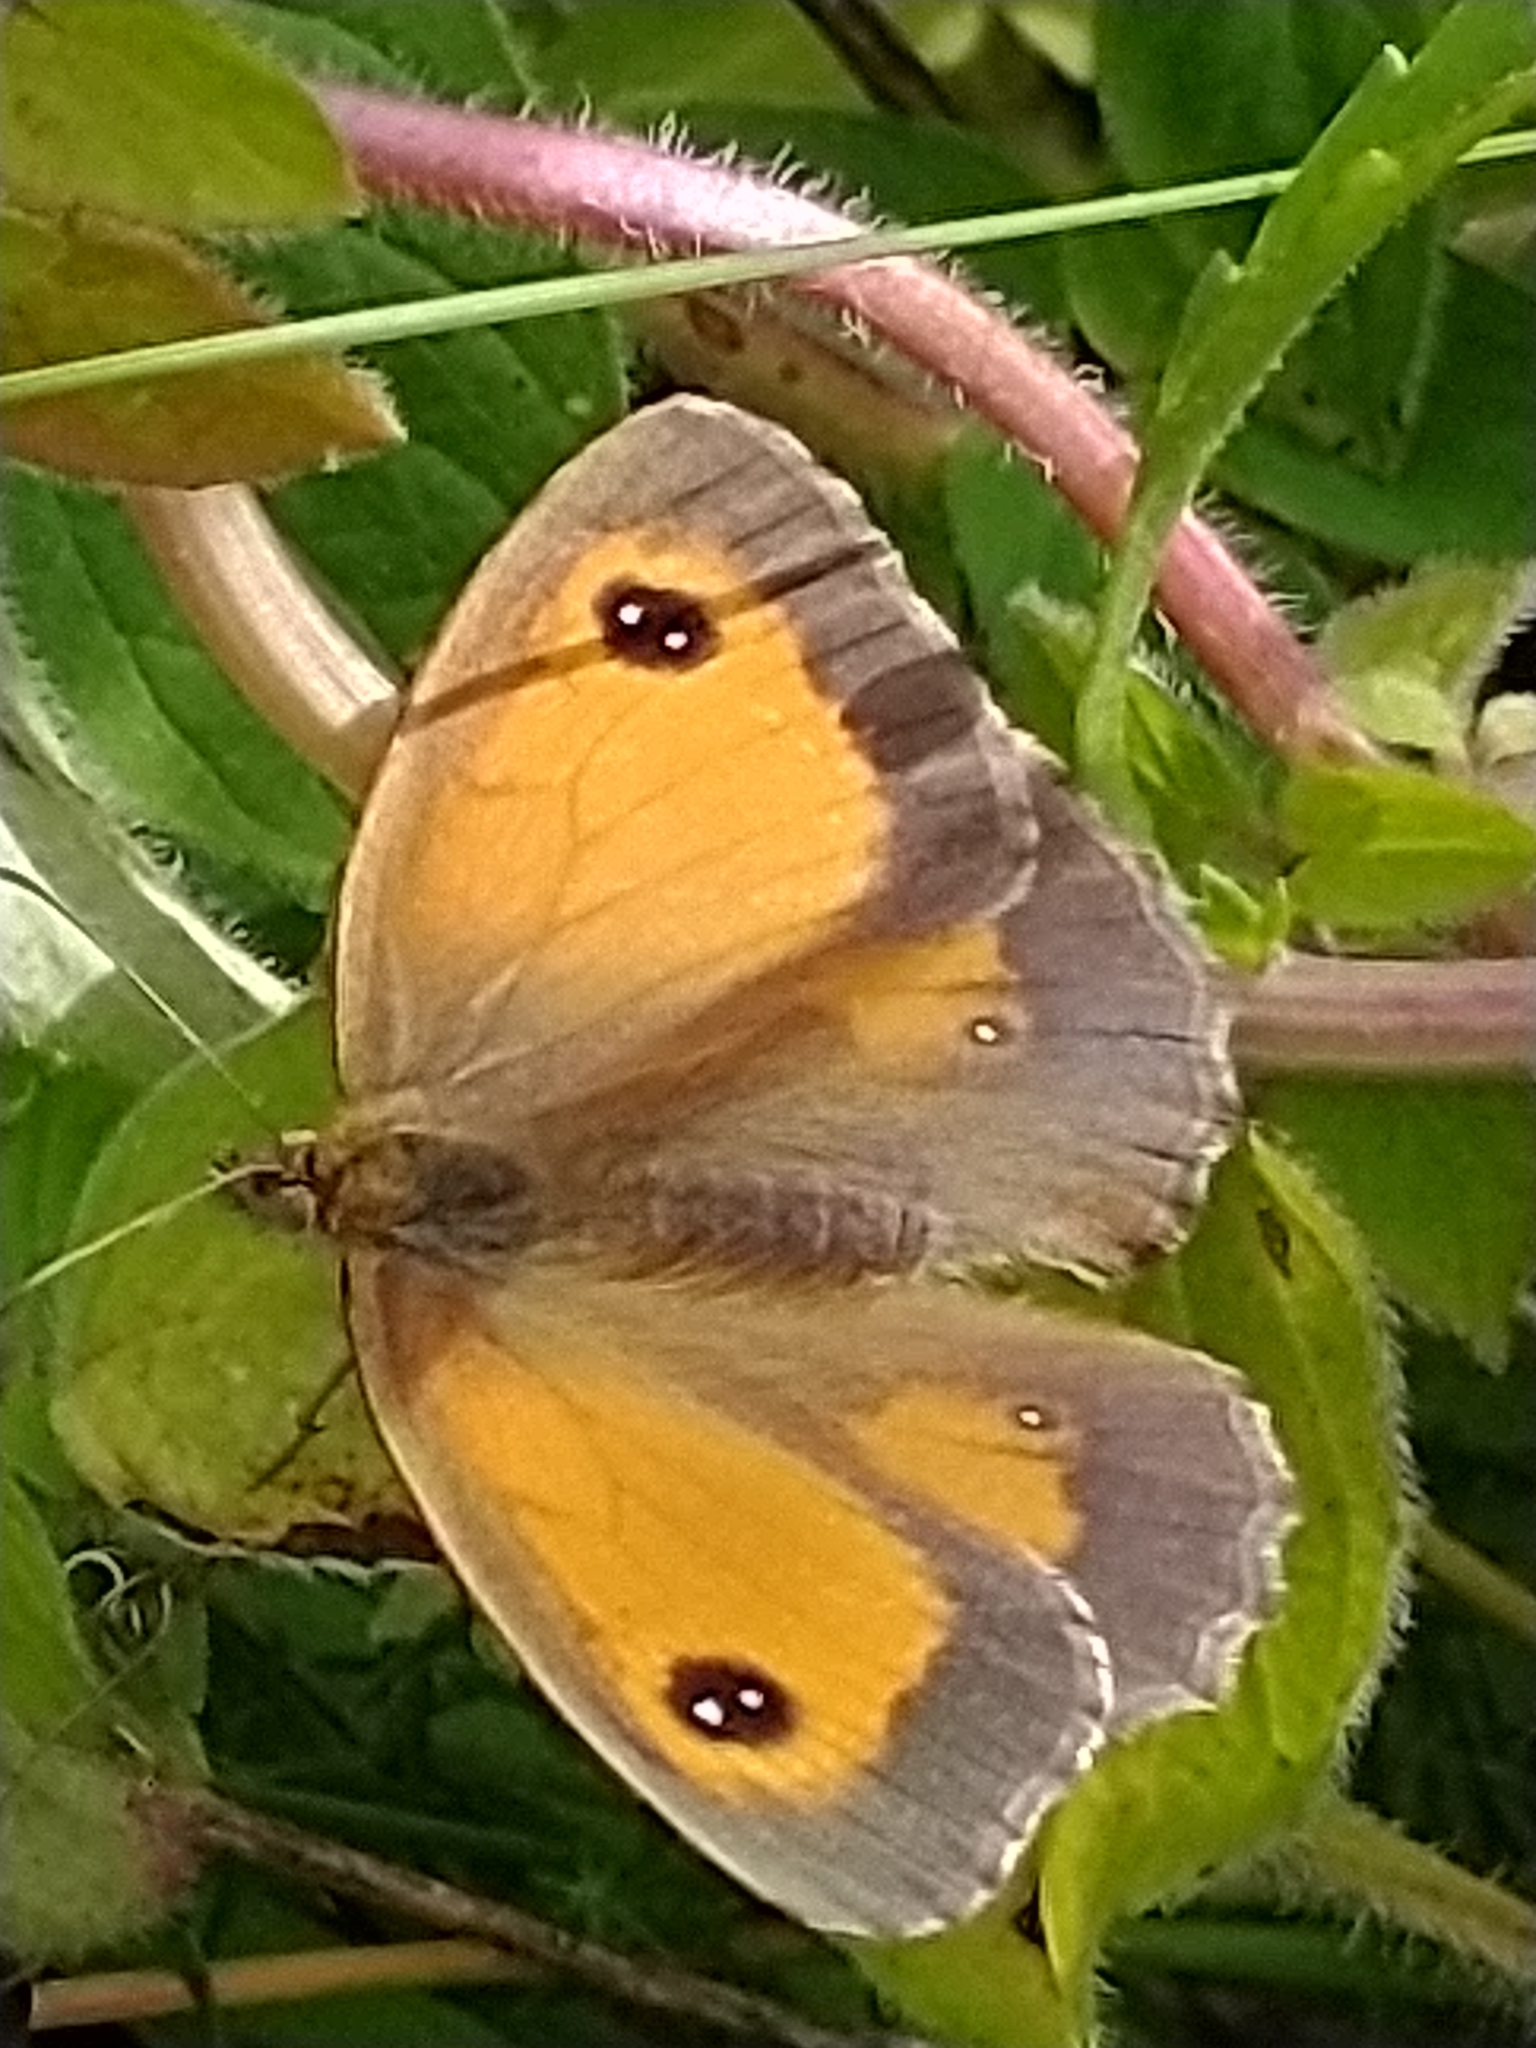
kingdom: Animalia
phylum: Arthropoda
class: Insecta
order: Lepidoptera
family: Nymphalidae
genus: Pyronia
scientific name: Pyronia tithonus
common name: Gatekeeper
